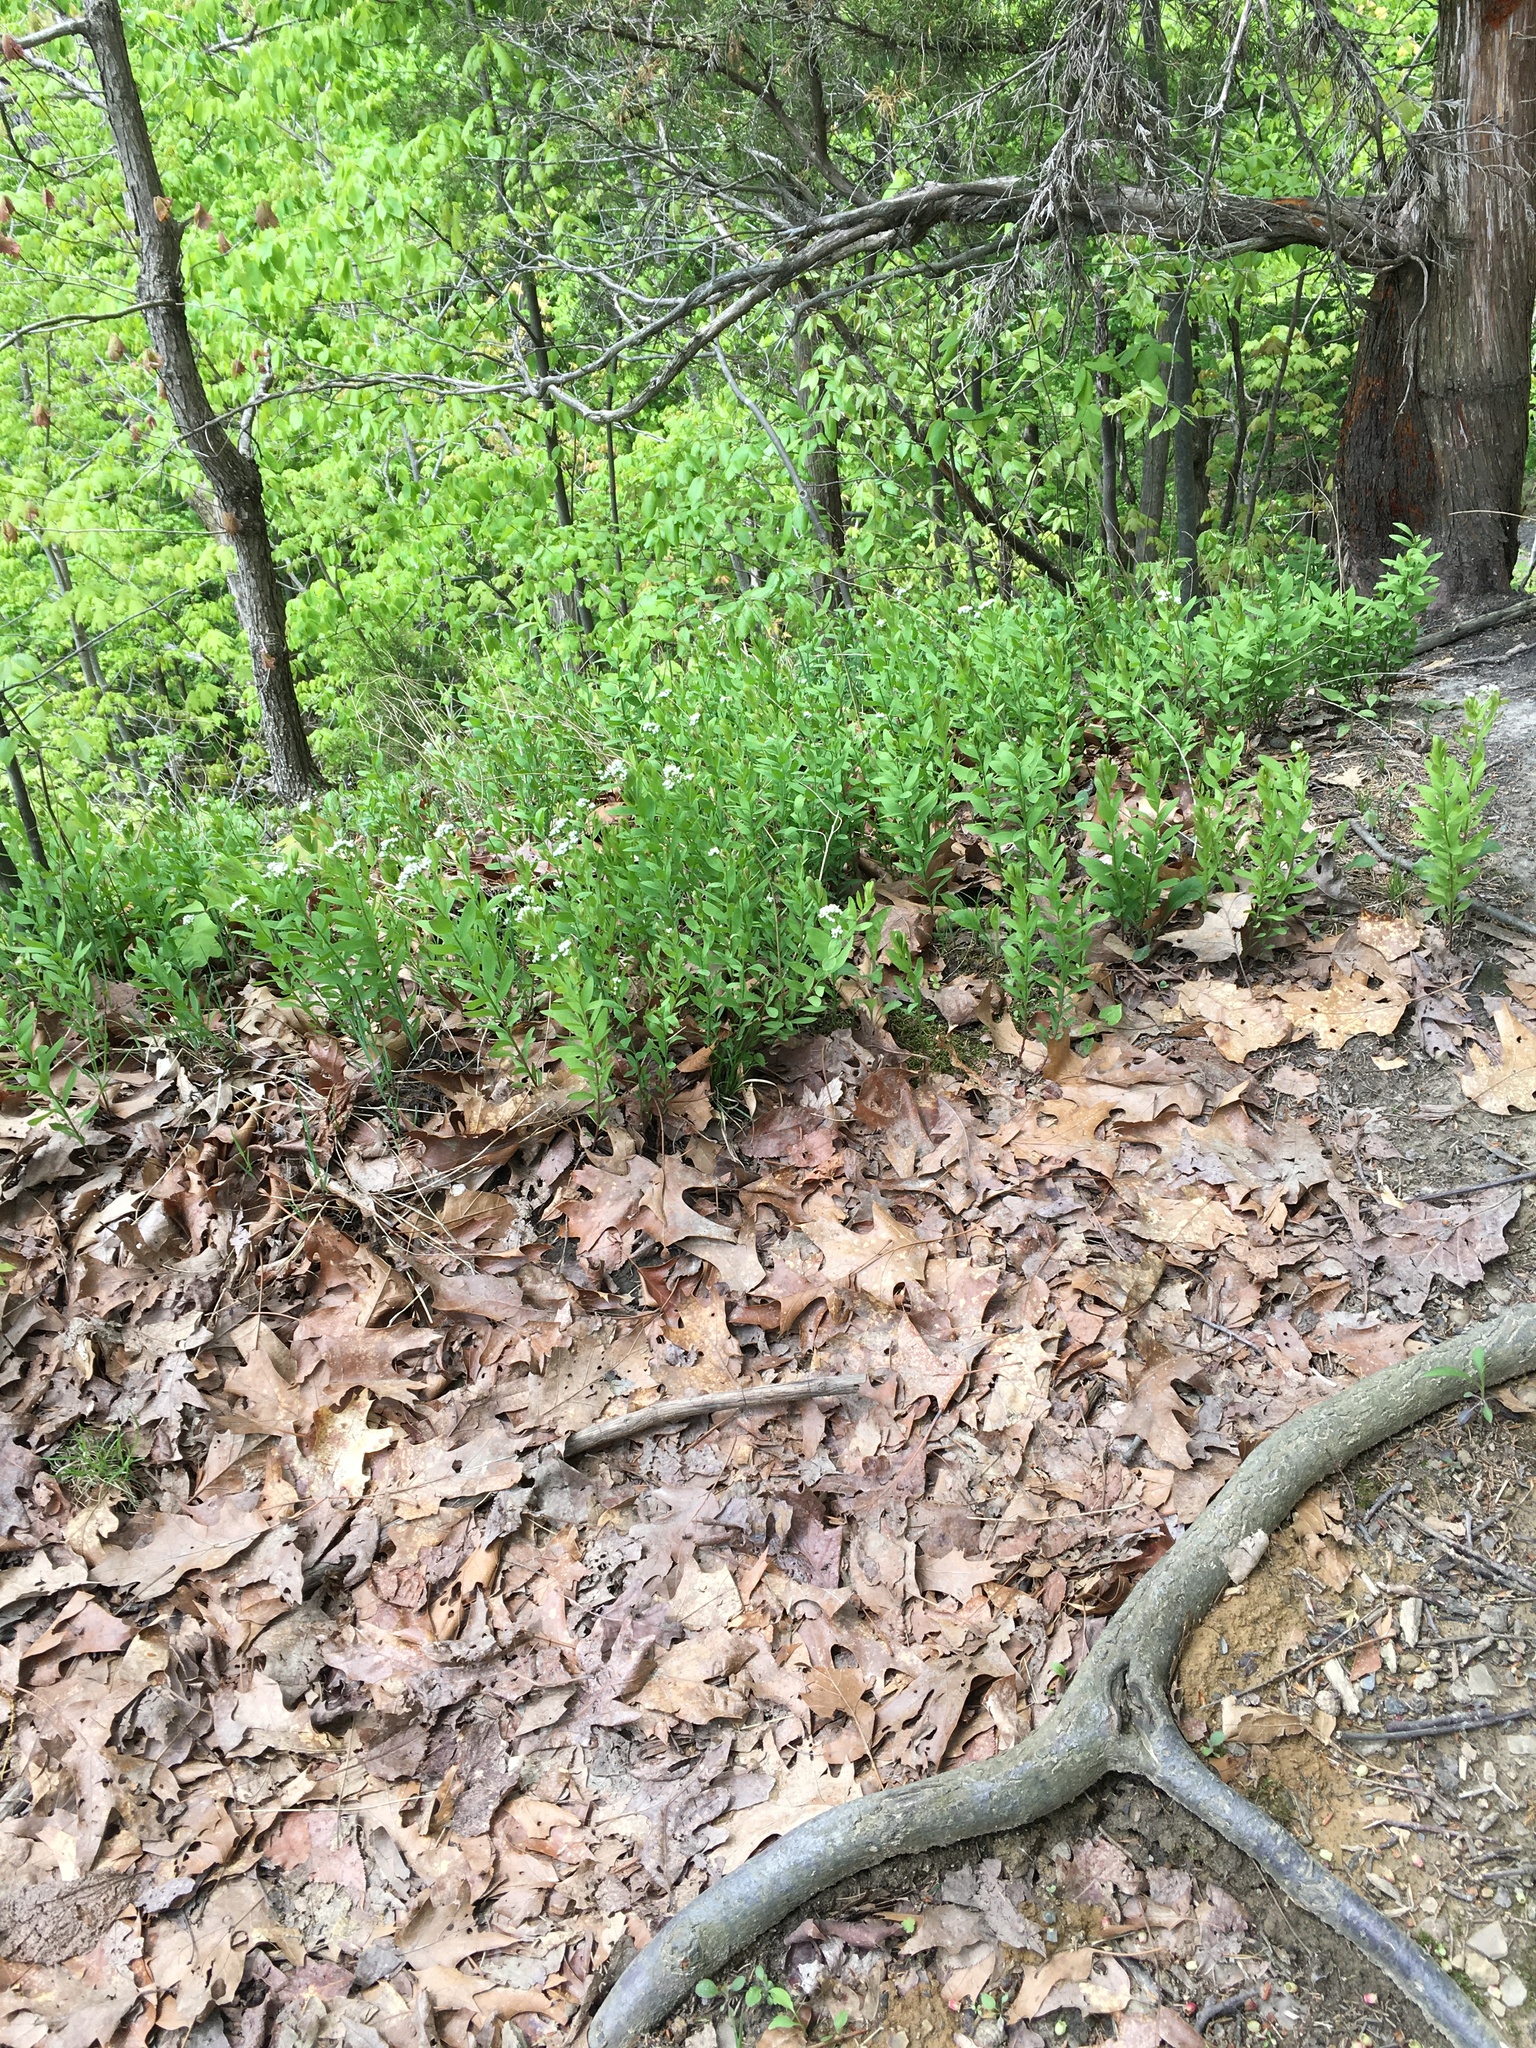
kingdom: Plantae
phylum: Tracheophyta
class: Magnoliopsida
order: Santalales
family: Comandraceae
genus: Comandra
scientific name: Comandra umbellata
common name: Bastard toadflax
